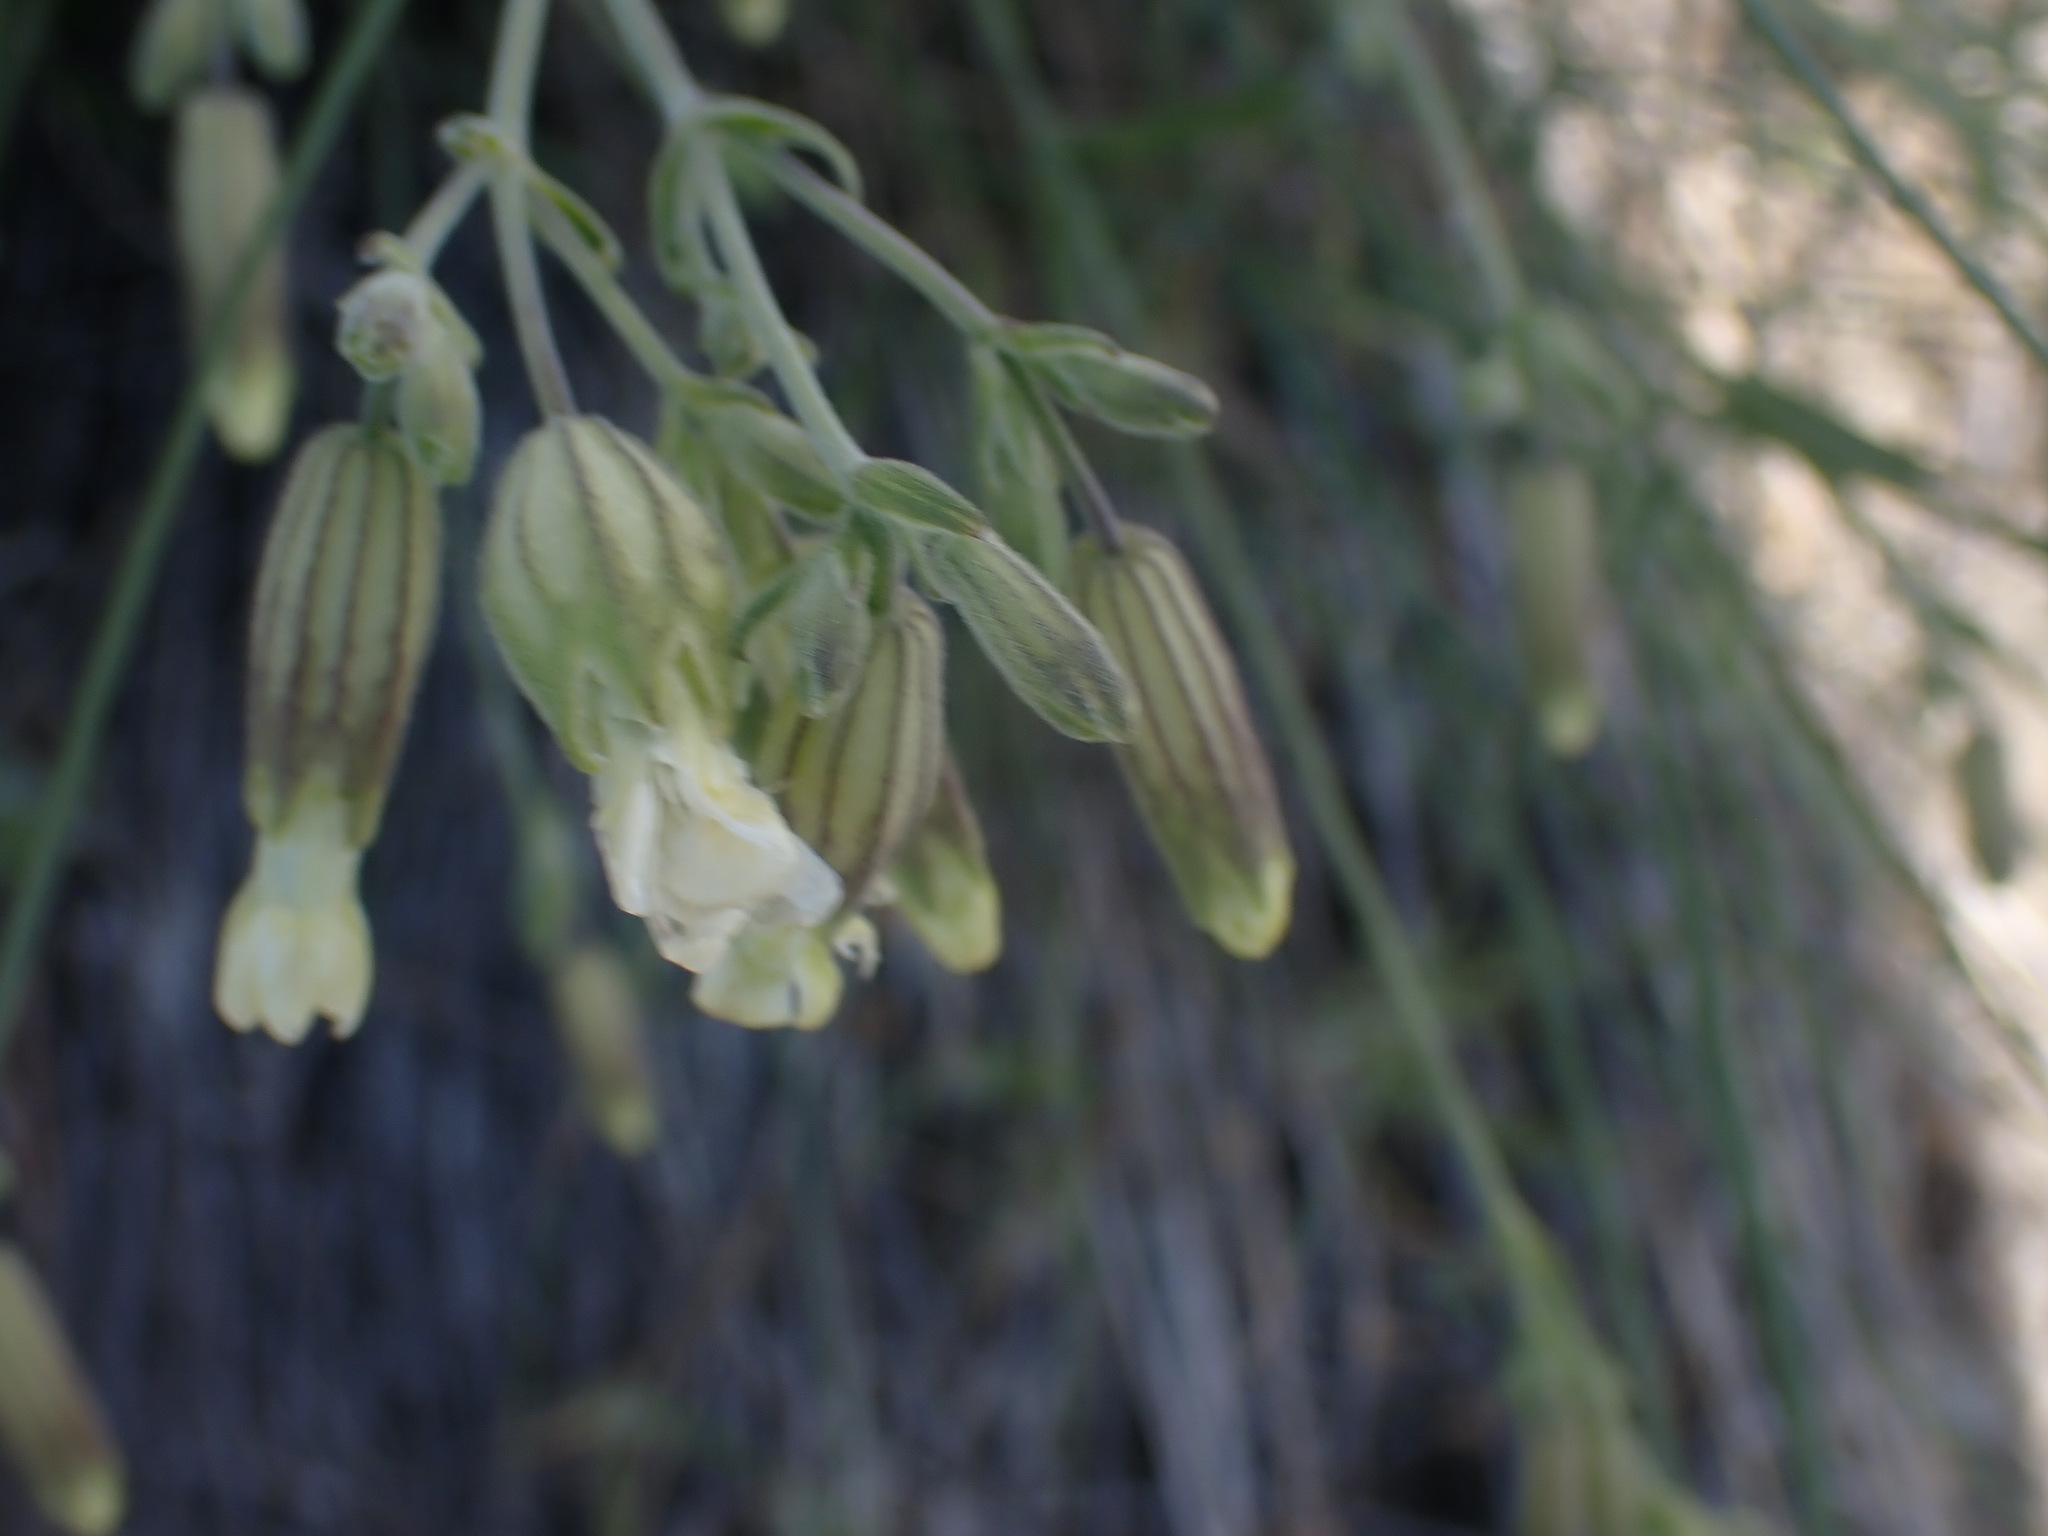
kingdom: Plantae
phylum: Tracheophyta
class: Magnoliopsida
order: Caryophyllales
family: Caryophyllaceae
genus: Silene
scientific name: Silene douglasii
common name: Douglas's catchfly
